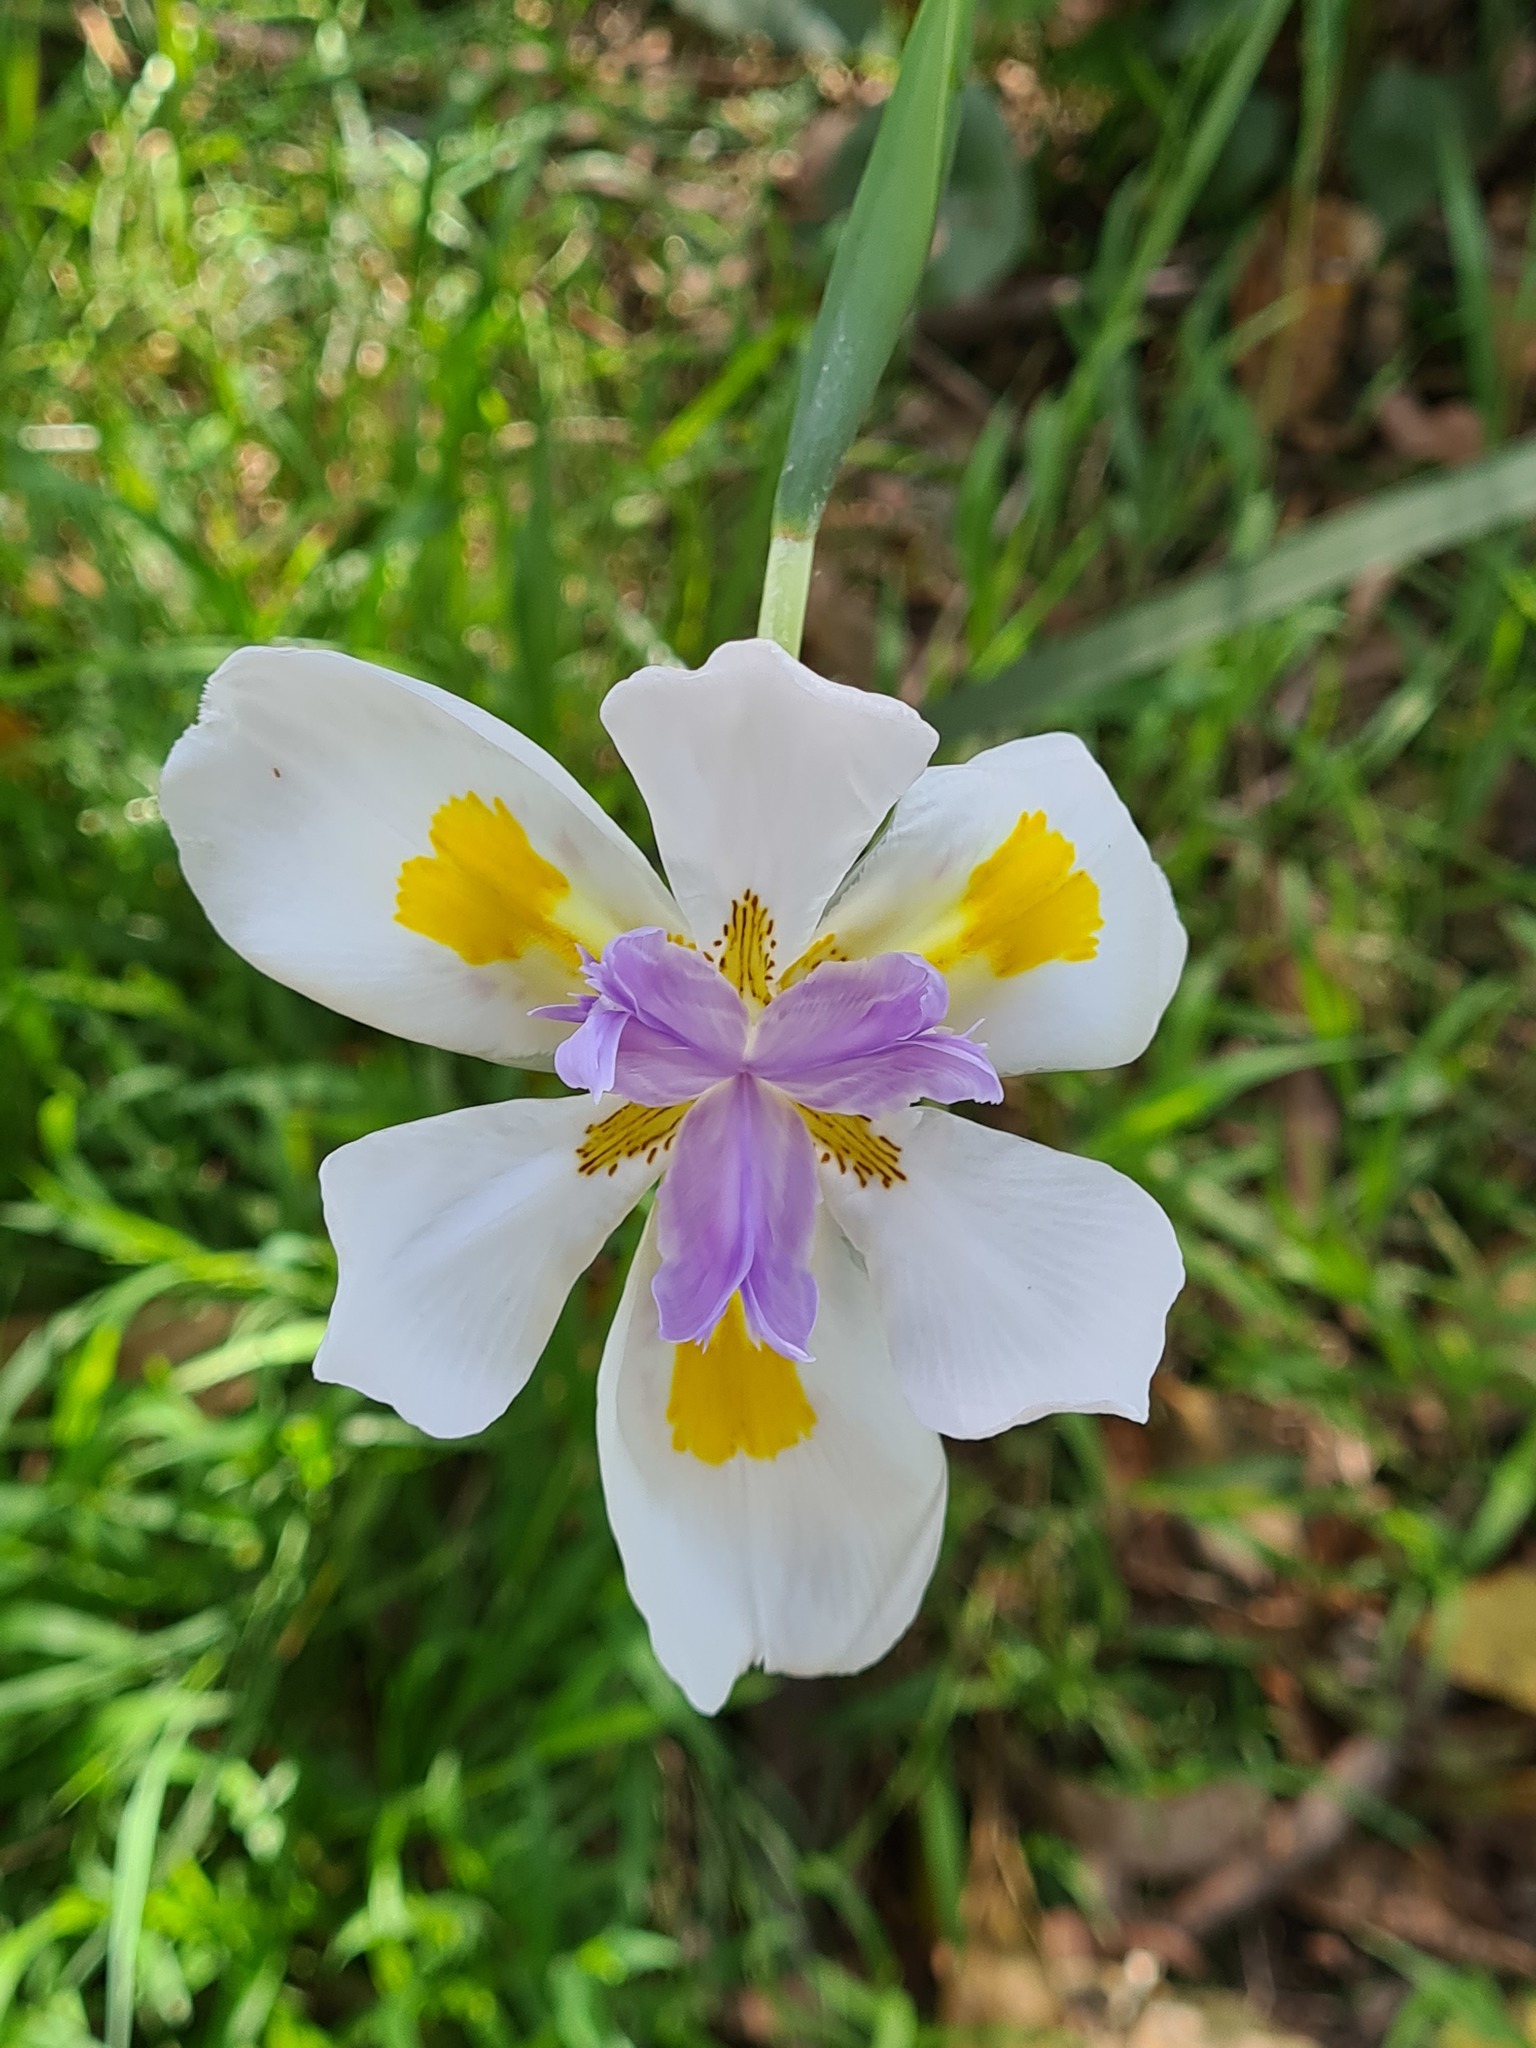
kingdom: Plantae
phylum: Tracheophyta
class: Liliopsida
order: Asparagales
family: Iridaceae
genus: Dietes
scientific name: Dietes grandiflora
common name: Wild iris
